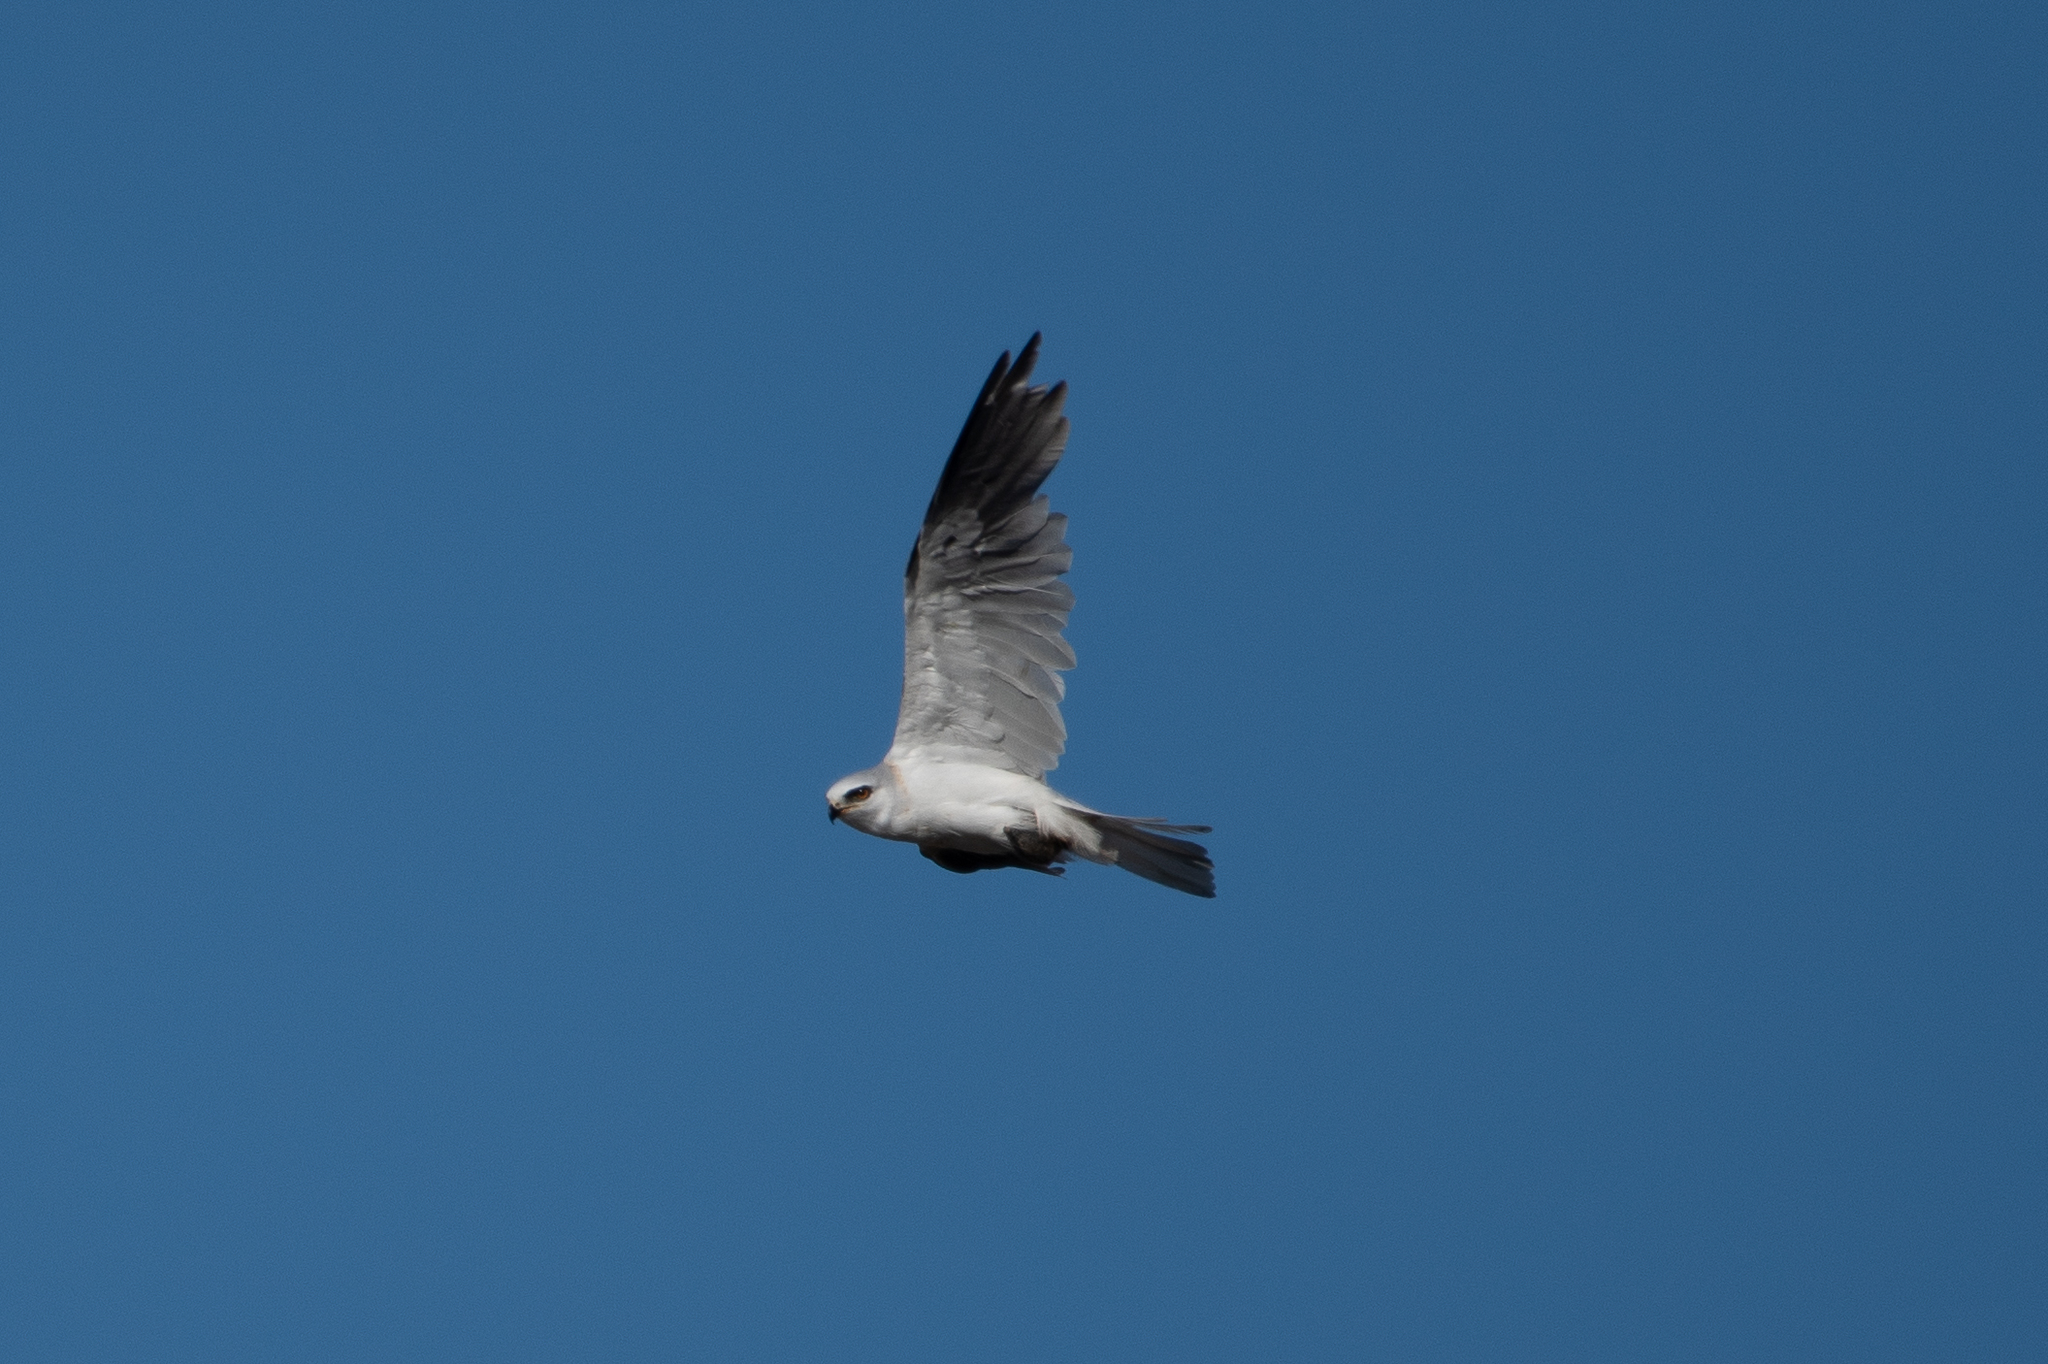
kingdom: Animalia
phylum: Chordata
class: Aves
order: Accipitriformes
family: Accipitridae
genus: Elanus
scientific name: Elanus leucurus
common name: White-tailed kite
